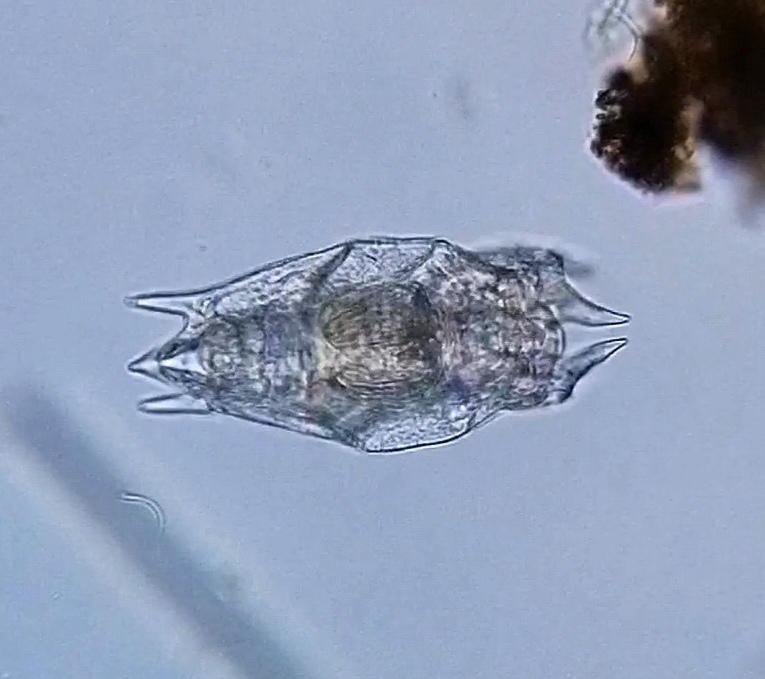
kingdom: Animalia
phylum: Rotifera
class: Eurotatoria
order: Ploima
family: Mytilinidae
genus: Mytilina
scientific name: Mytilina mucronata
